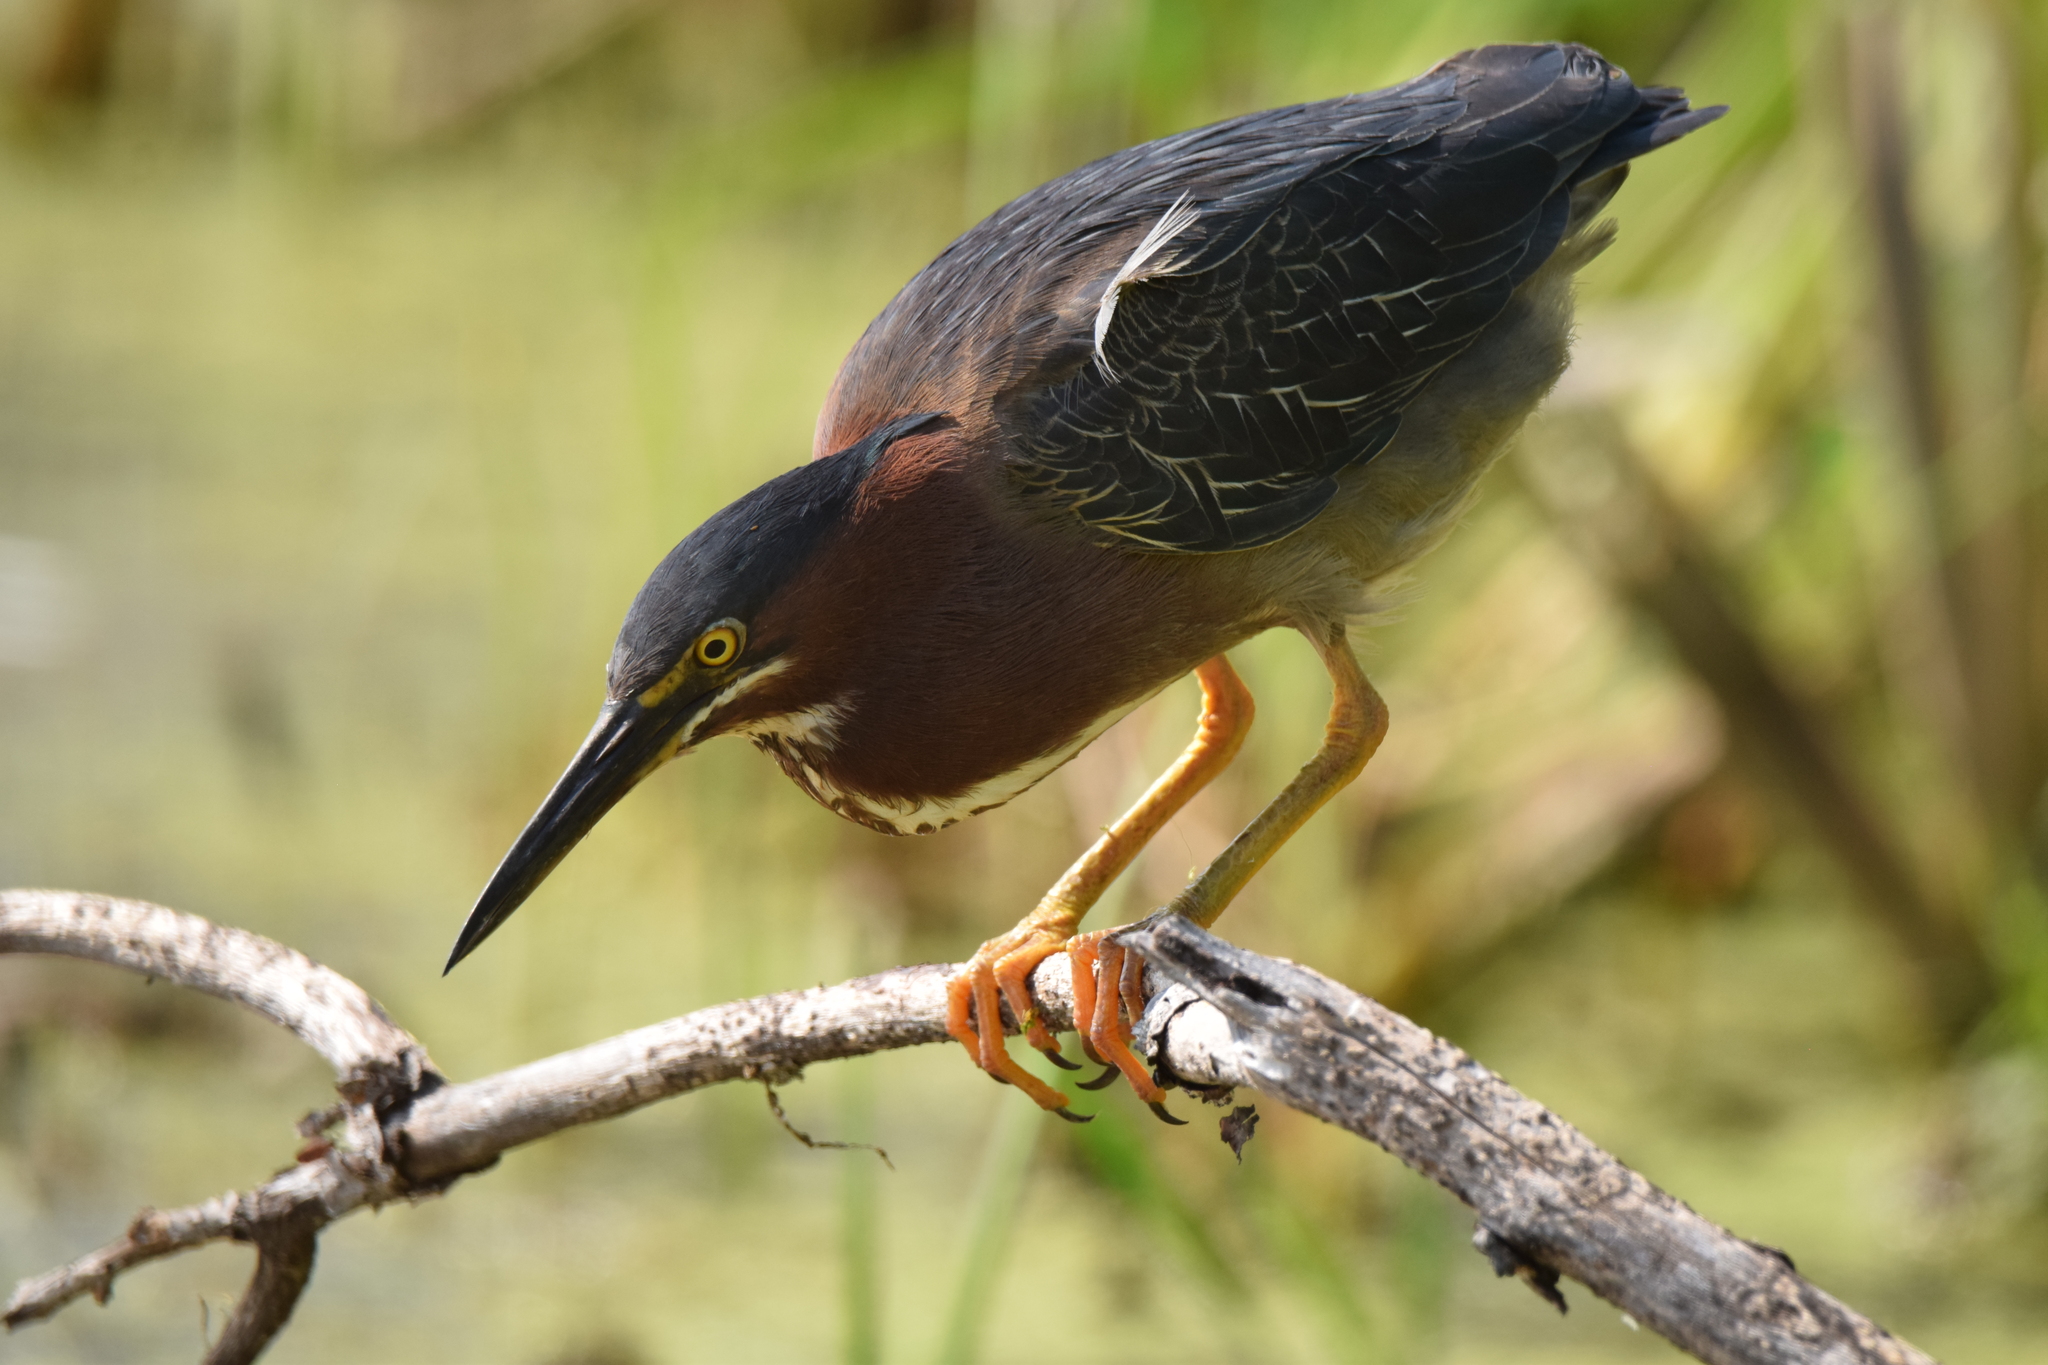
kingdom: Animalia
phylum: Chordata
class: Aves
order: Pelecaniformes
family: Ardeidae
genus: Butorides
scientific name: Butorides virescens
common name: Green heron
